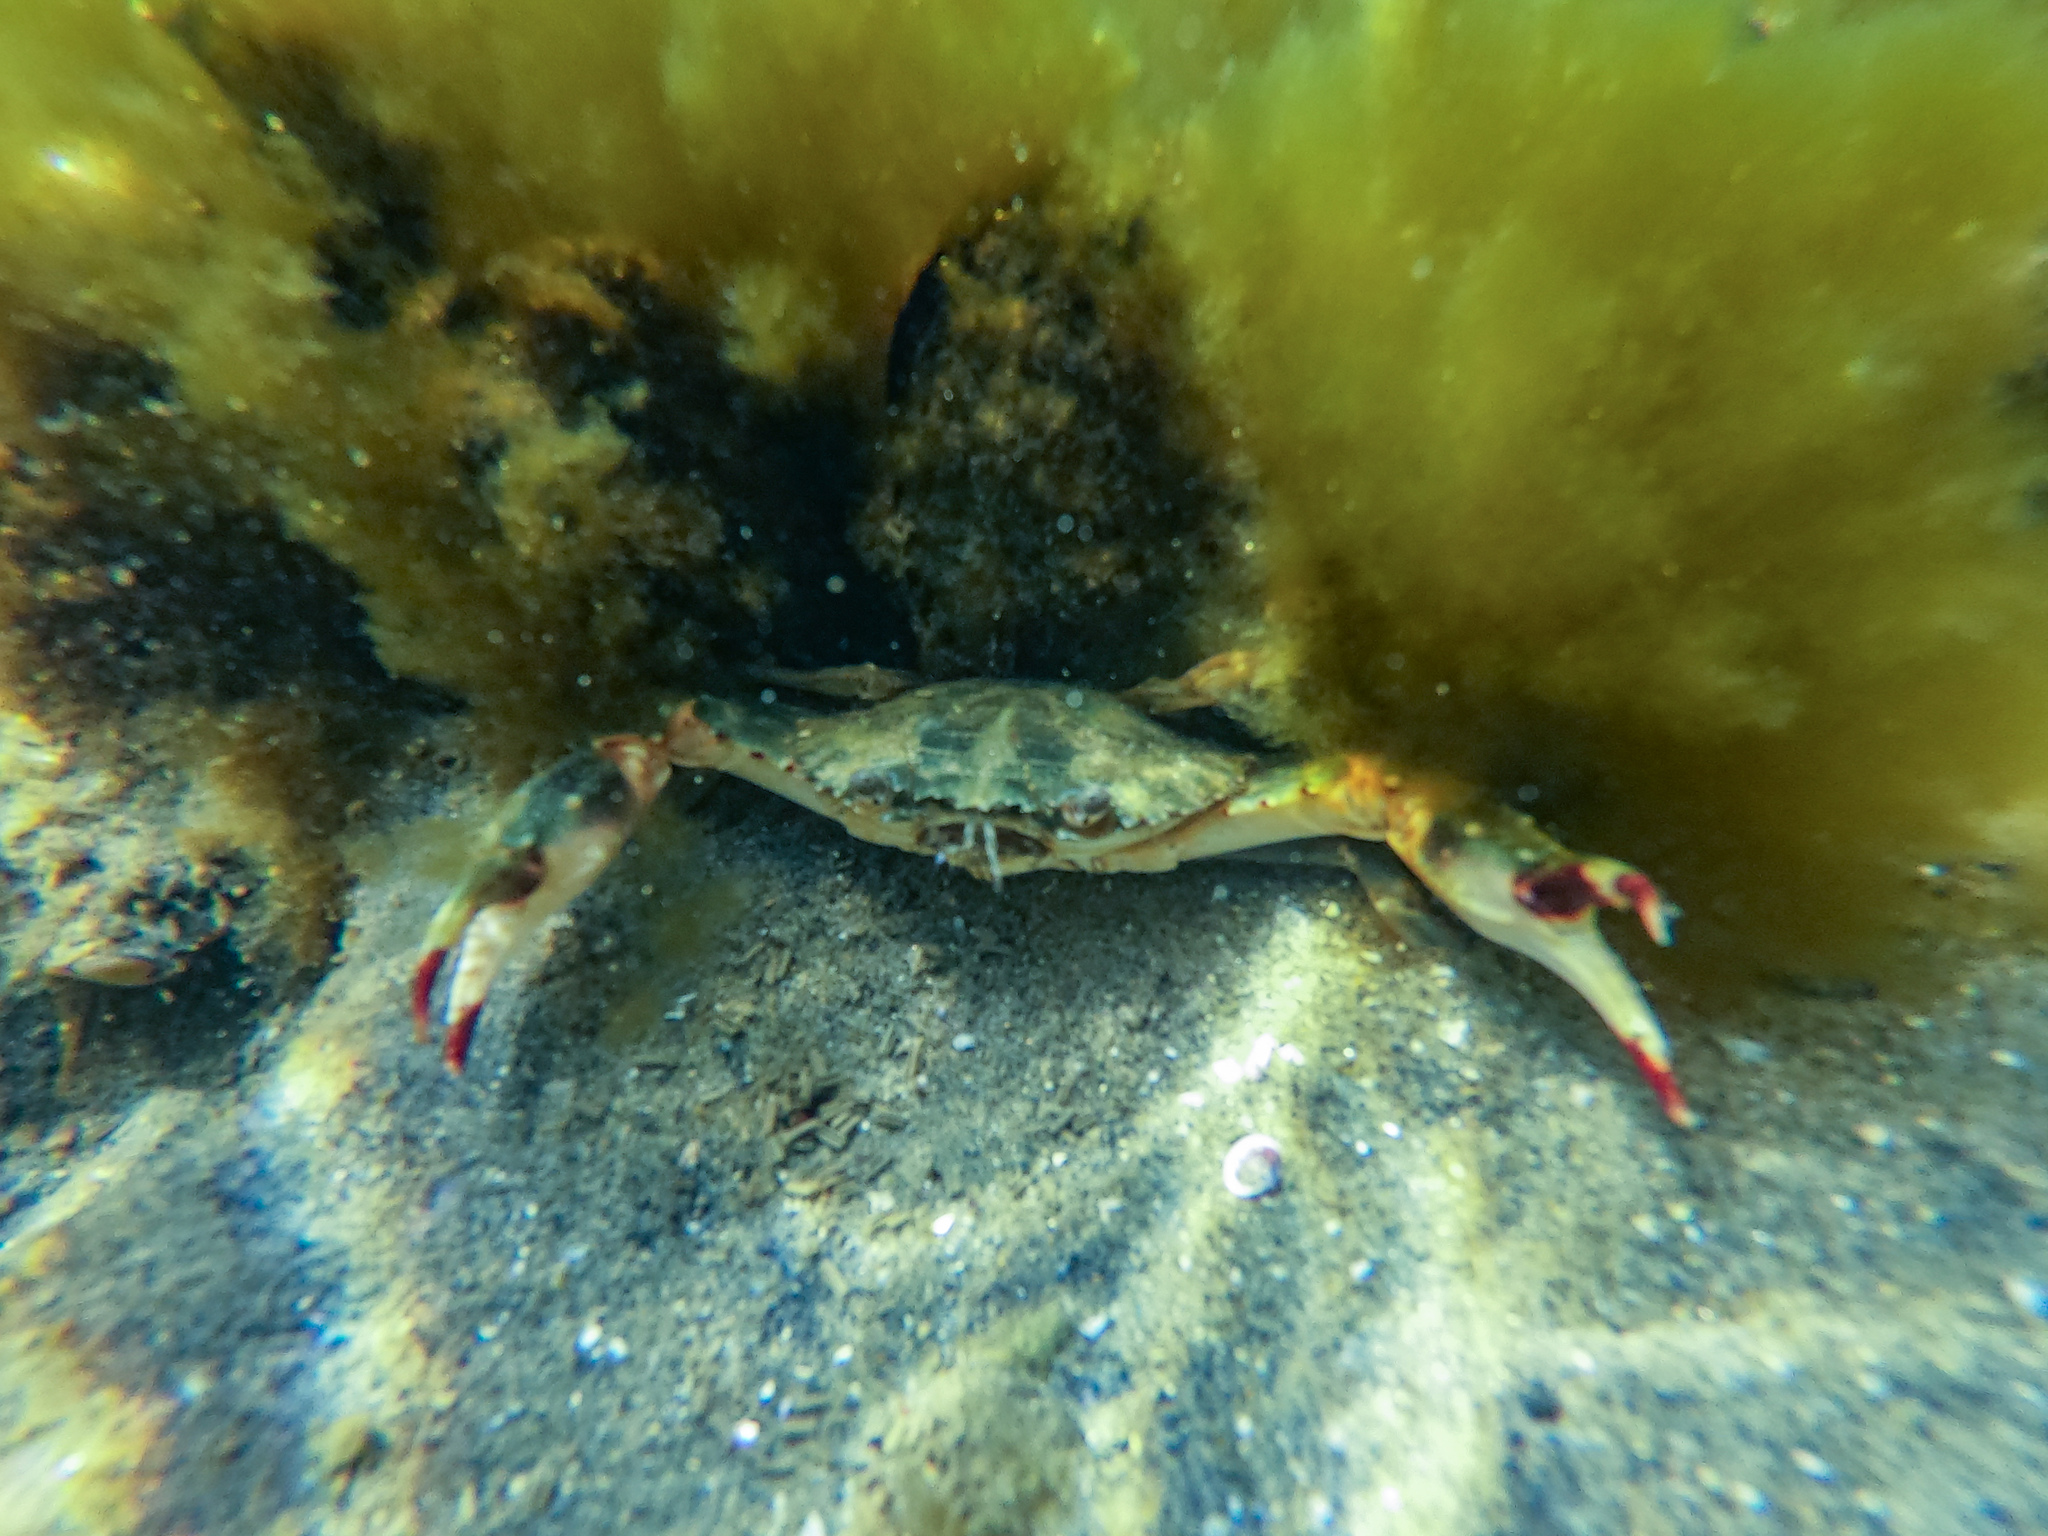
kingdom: Animalia
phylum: Arthropoda
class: Malacostraca
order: Decapoda
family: Portunidae
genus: Charybdis
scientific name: Charybdis japonica
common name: Asian paddle crab
